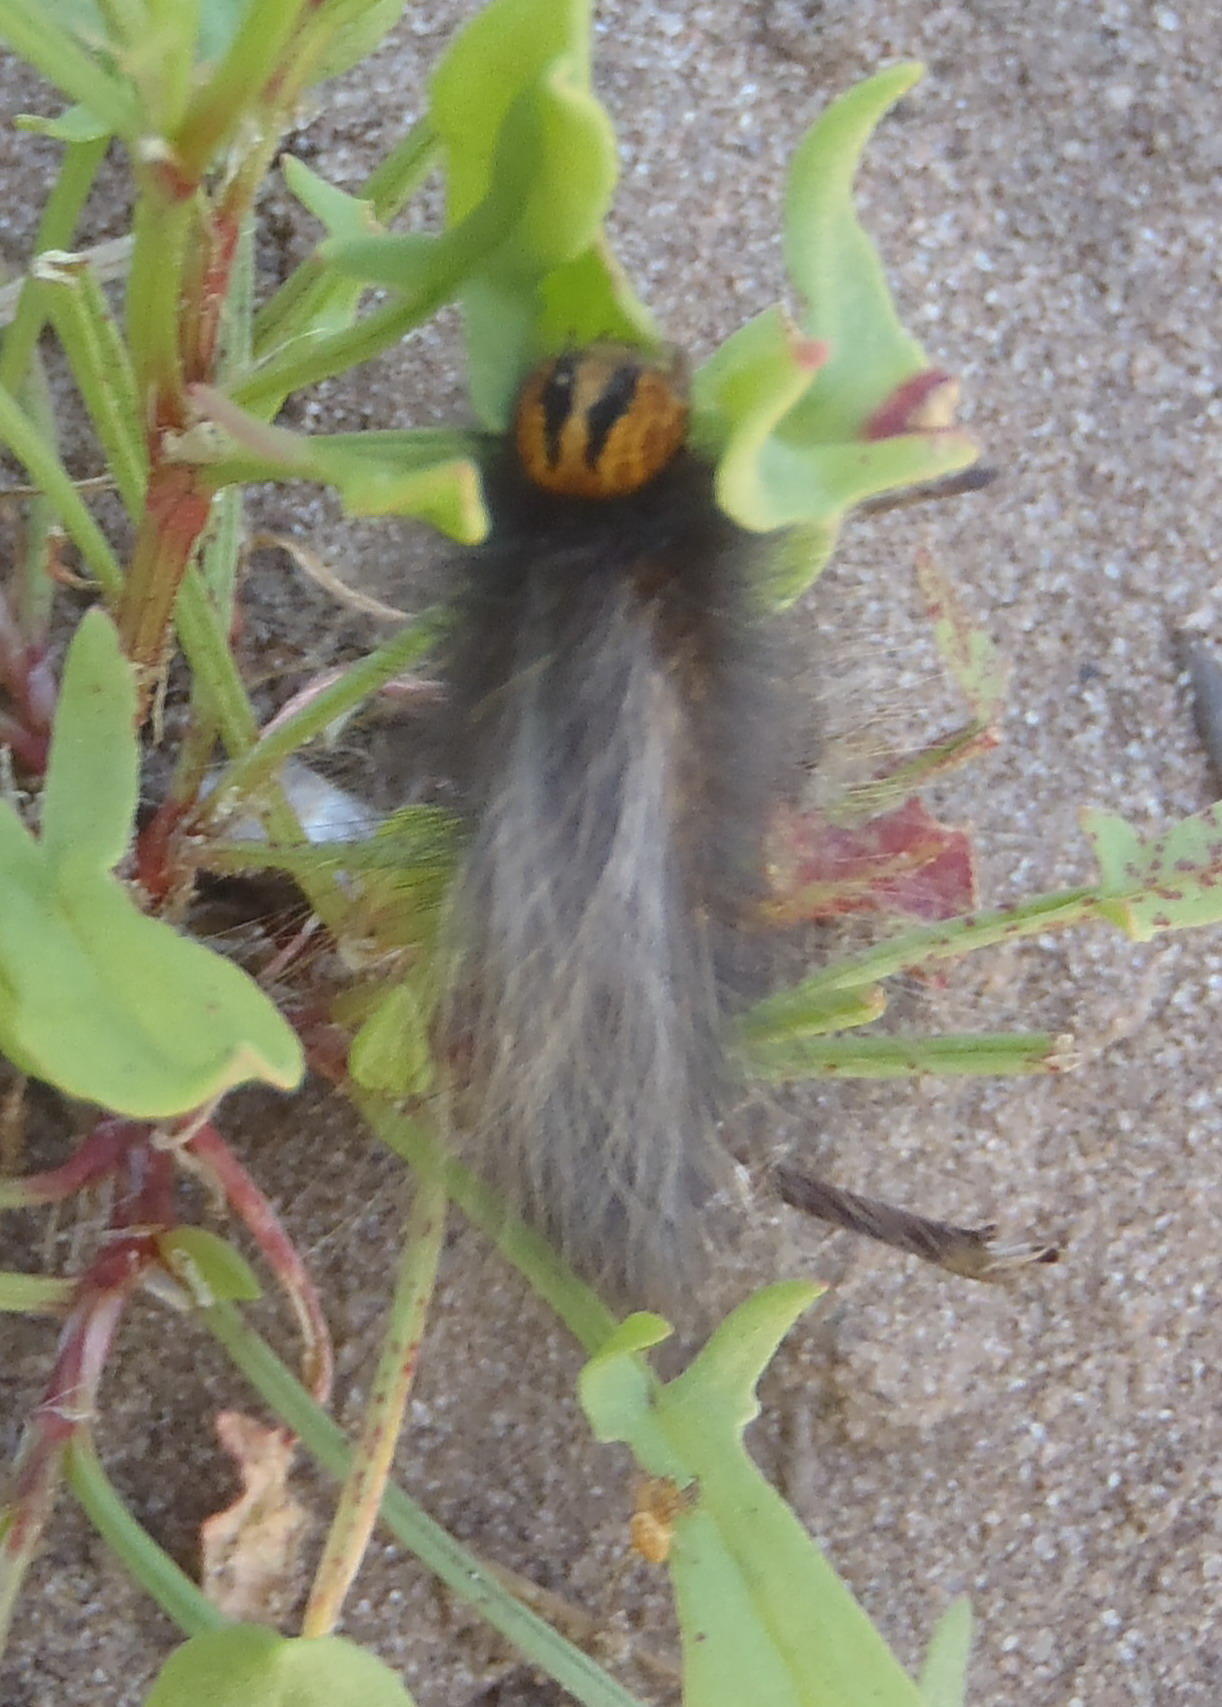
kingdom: Animalia
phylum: Arthropoda
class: Insecta
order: Lepidoptera
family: Lasiocampidae
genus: Mesocelis
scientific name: Mesocelis monticola
